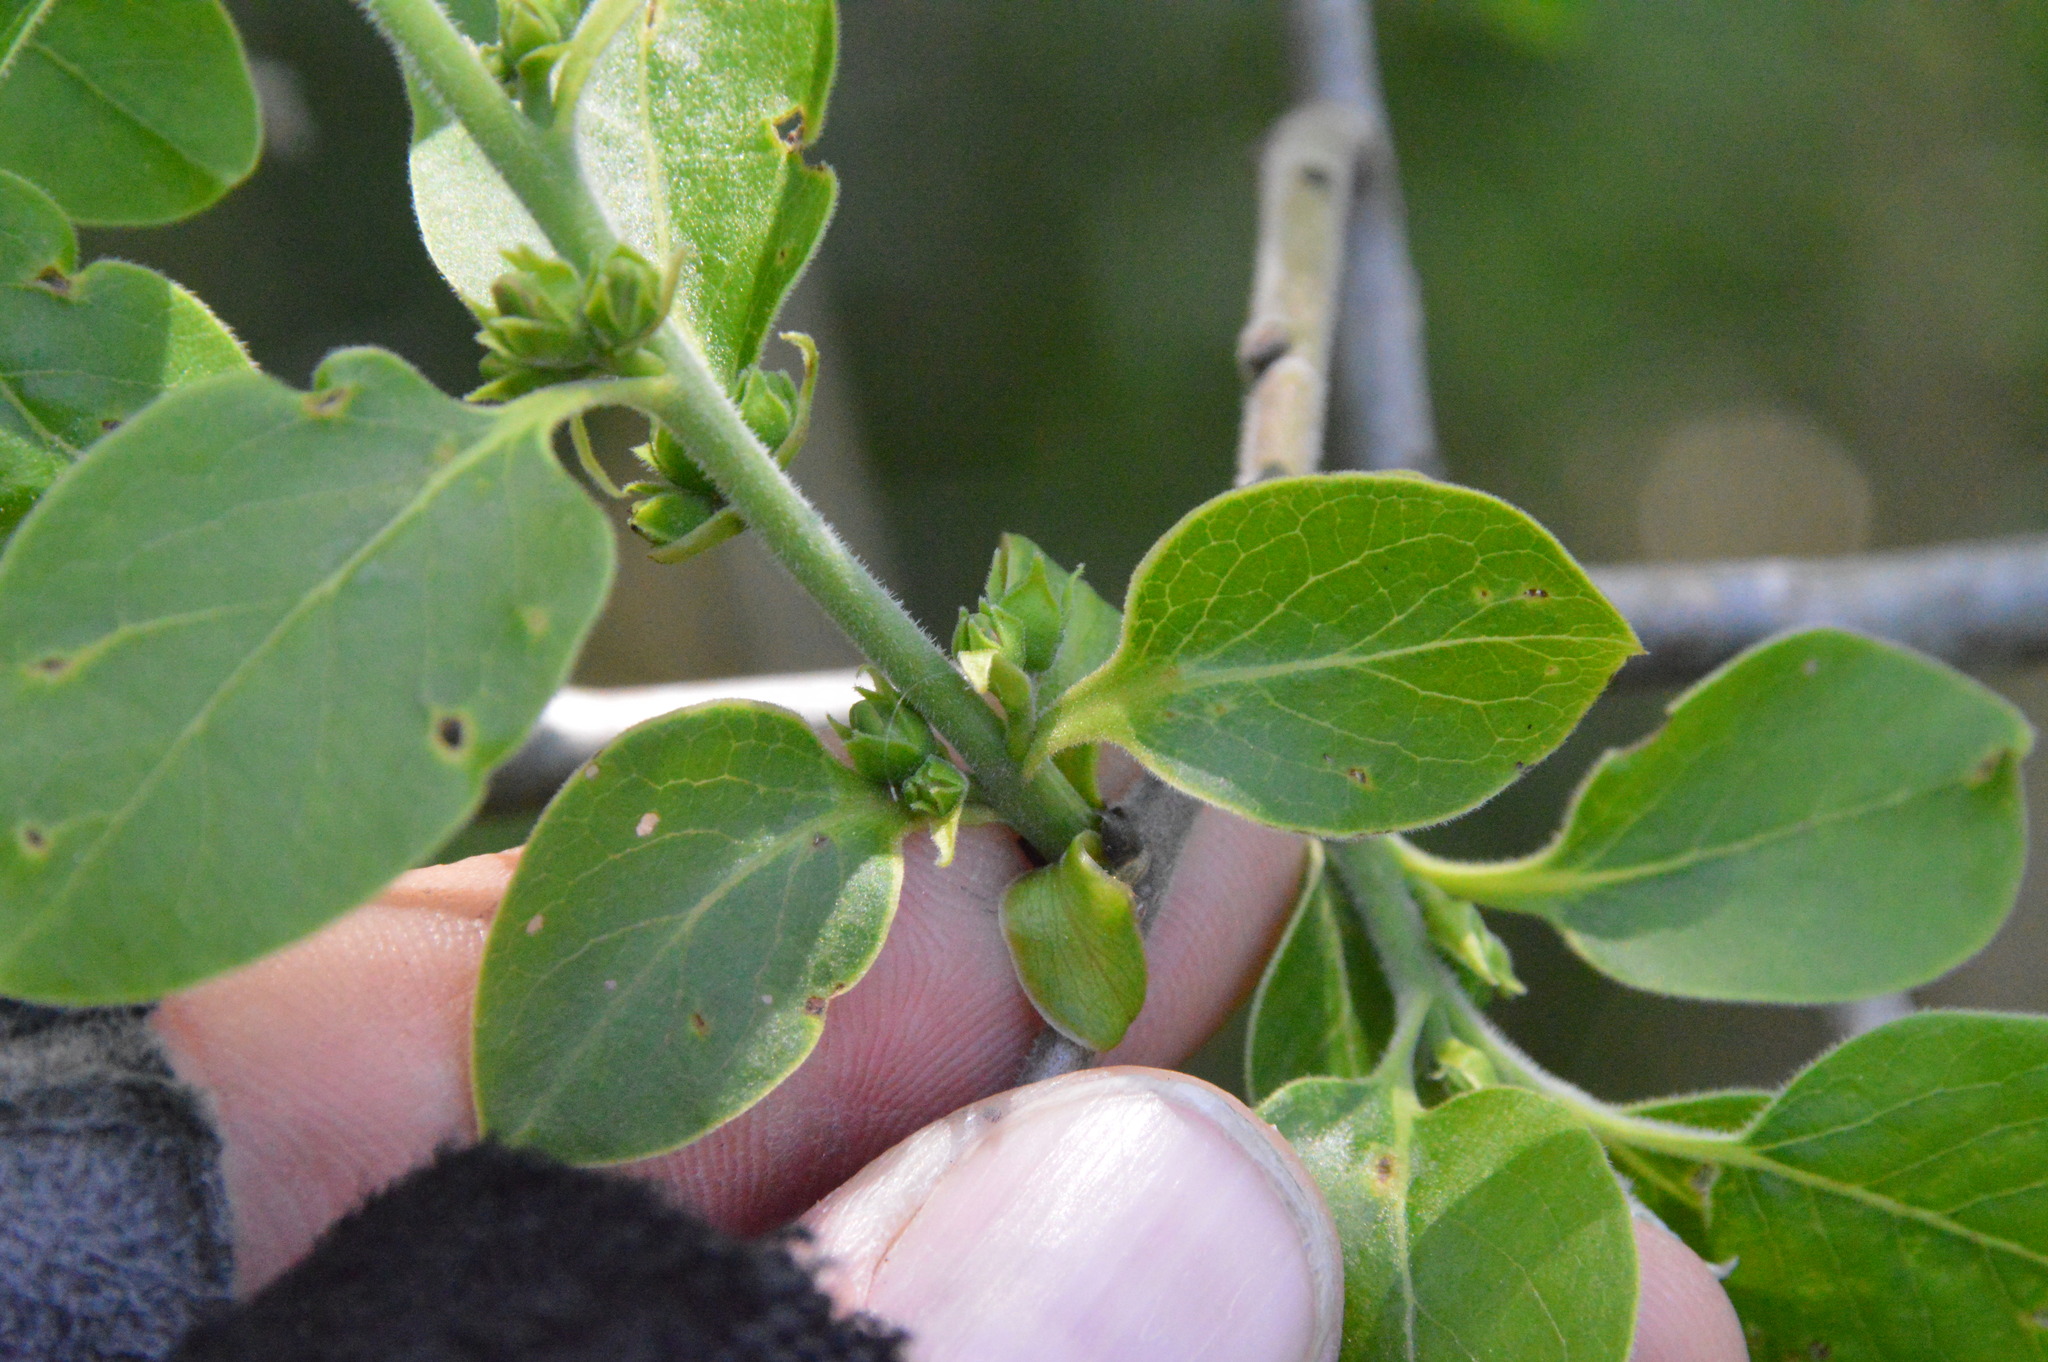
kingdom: Plantae
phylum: Tracheophyta
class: Magnoliopsida
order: Ericales
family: Ebenaceae
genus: Diospyros
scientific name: Diospyros virginiana
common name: Persimmon
